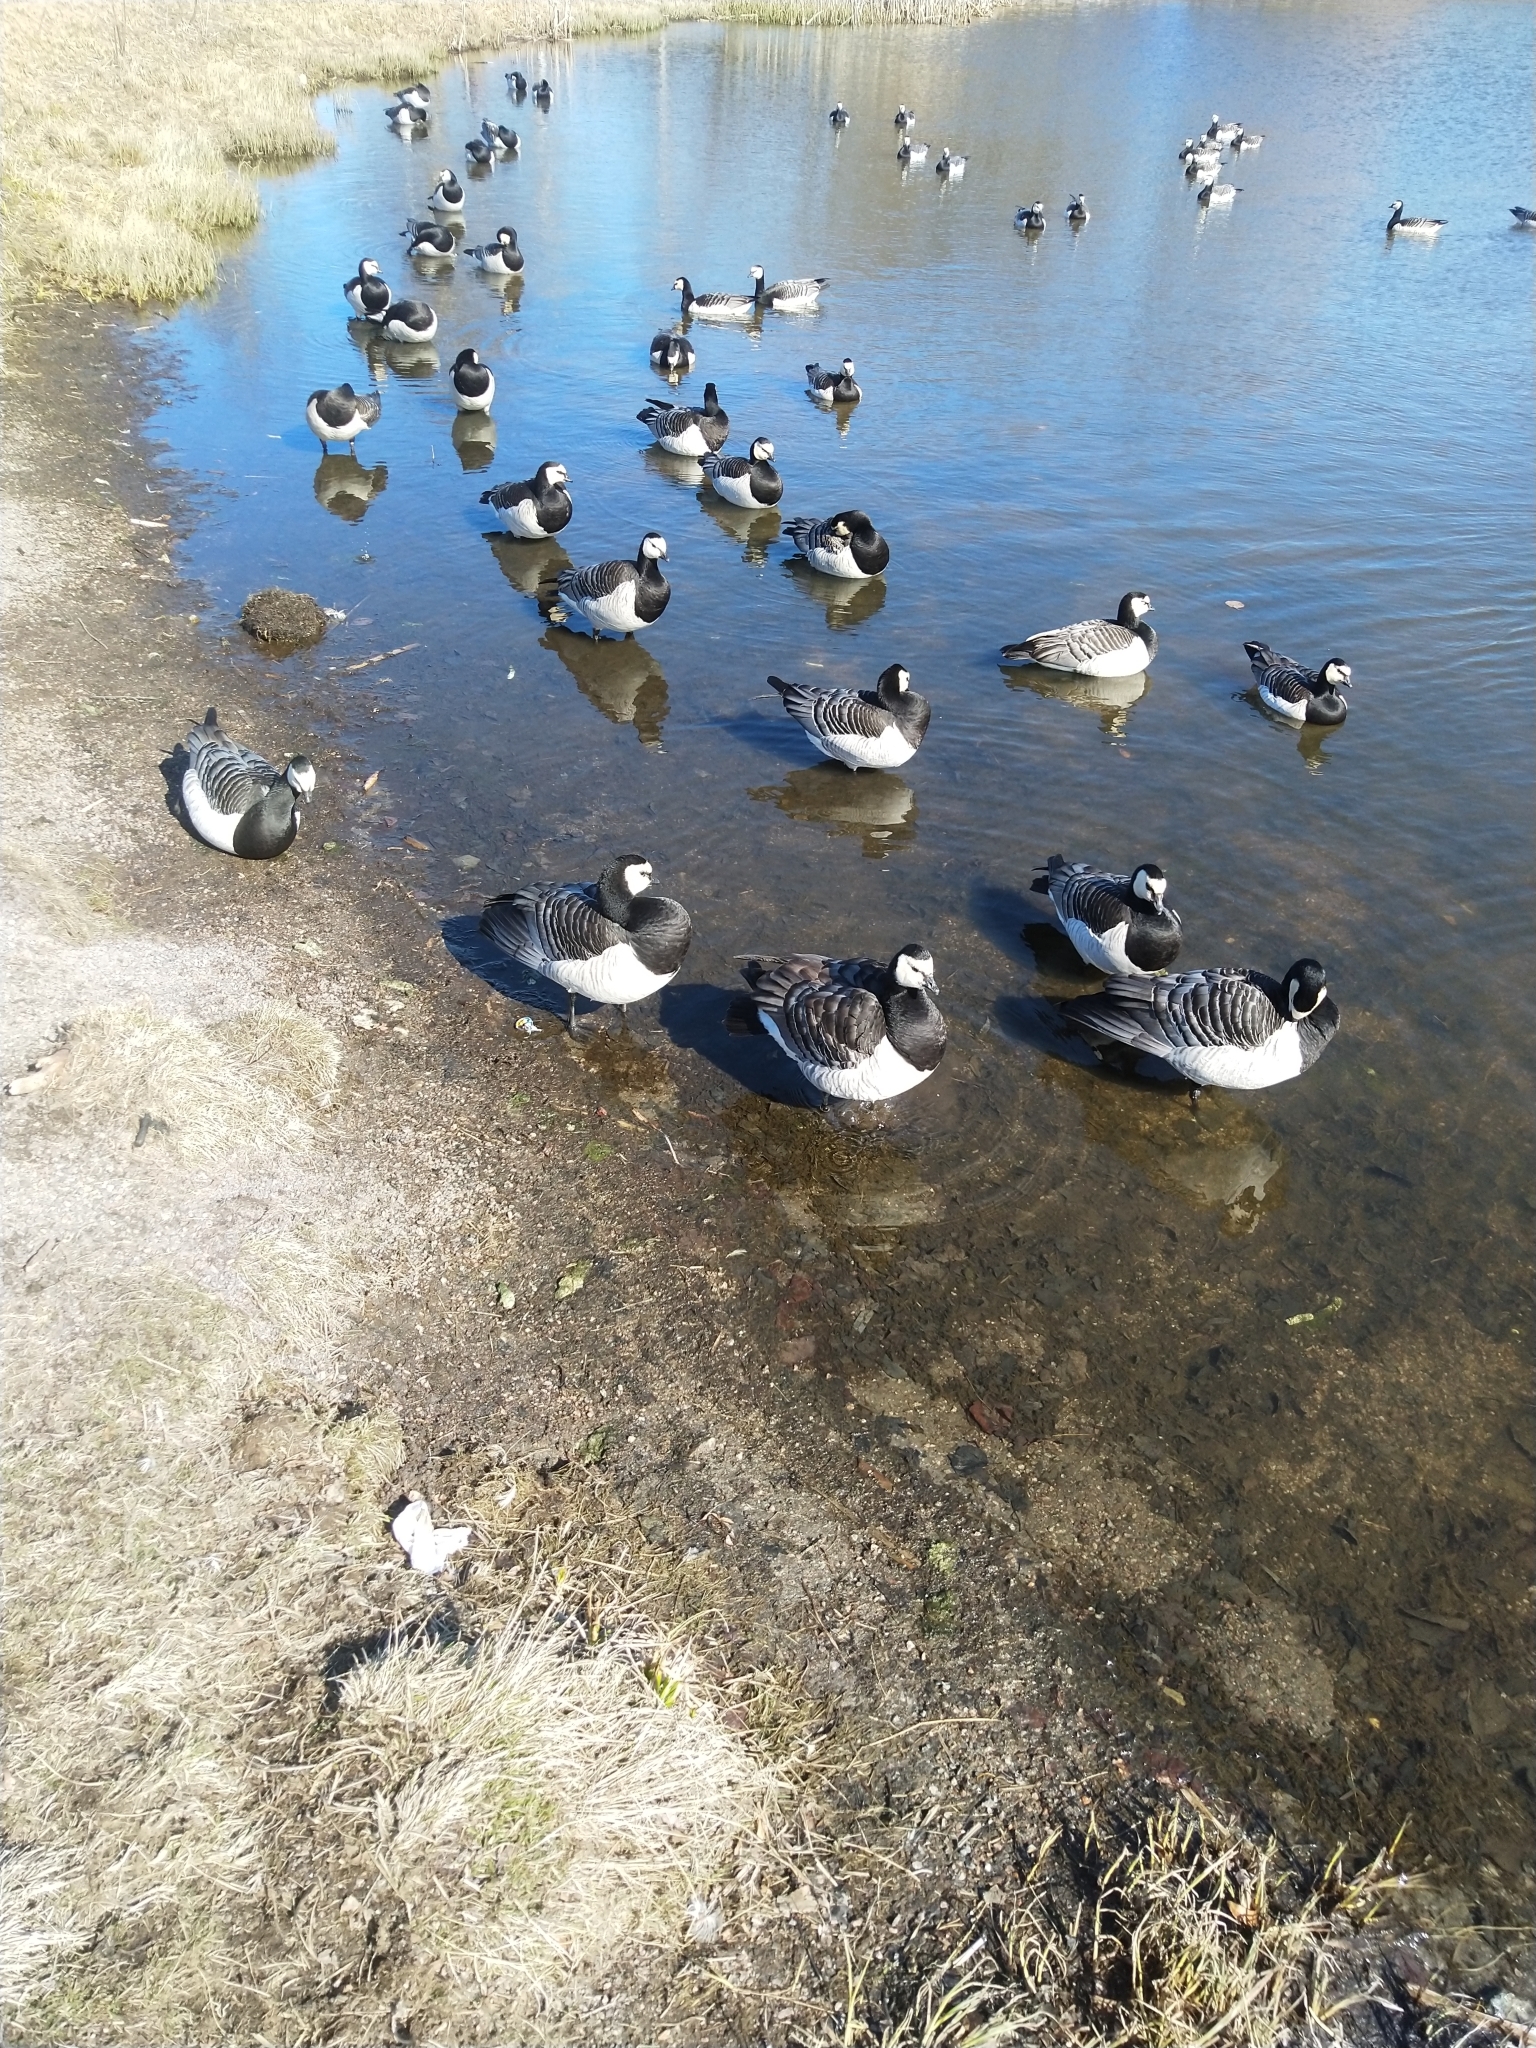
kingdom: Animalia
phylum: Chordata
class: Aves
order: Anseriformes
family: Anatidae
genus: Branta
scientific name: Branta leucopsis
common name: Barnacle goose
